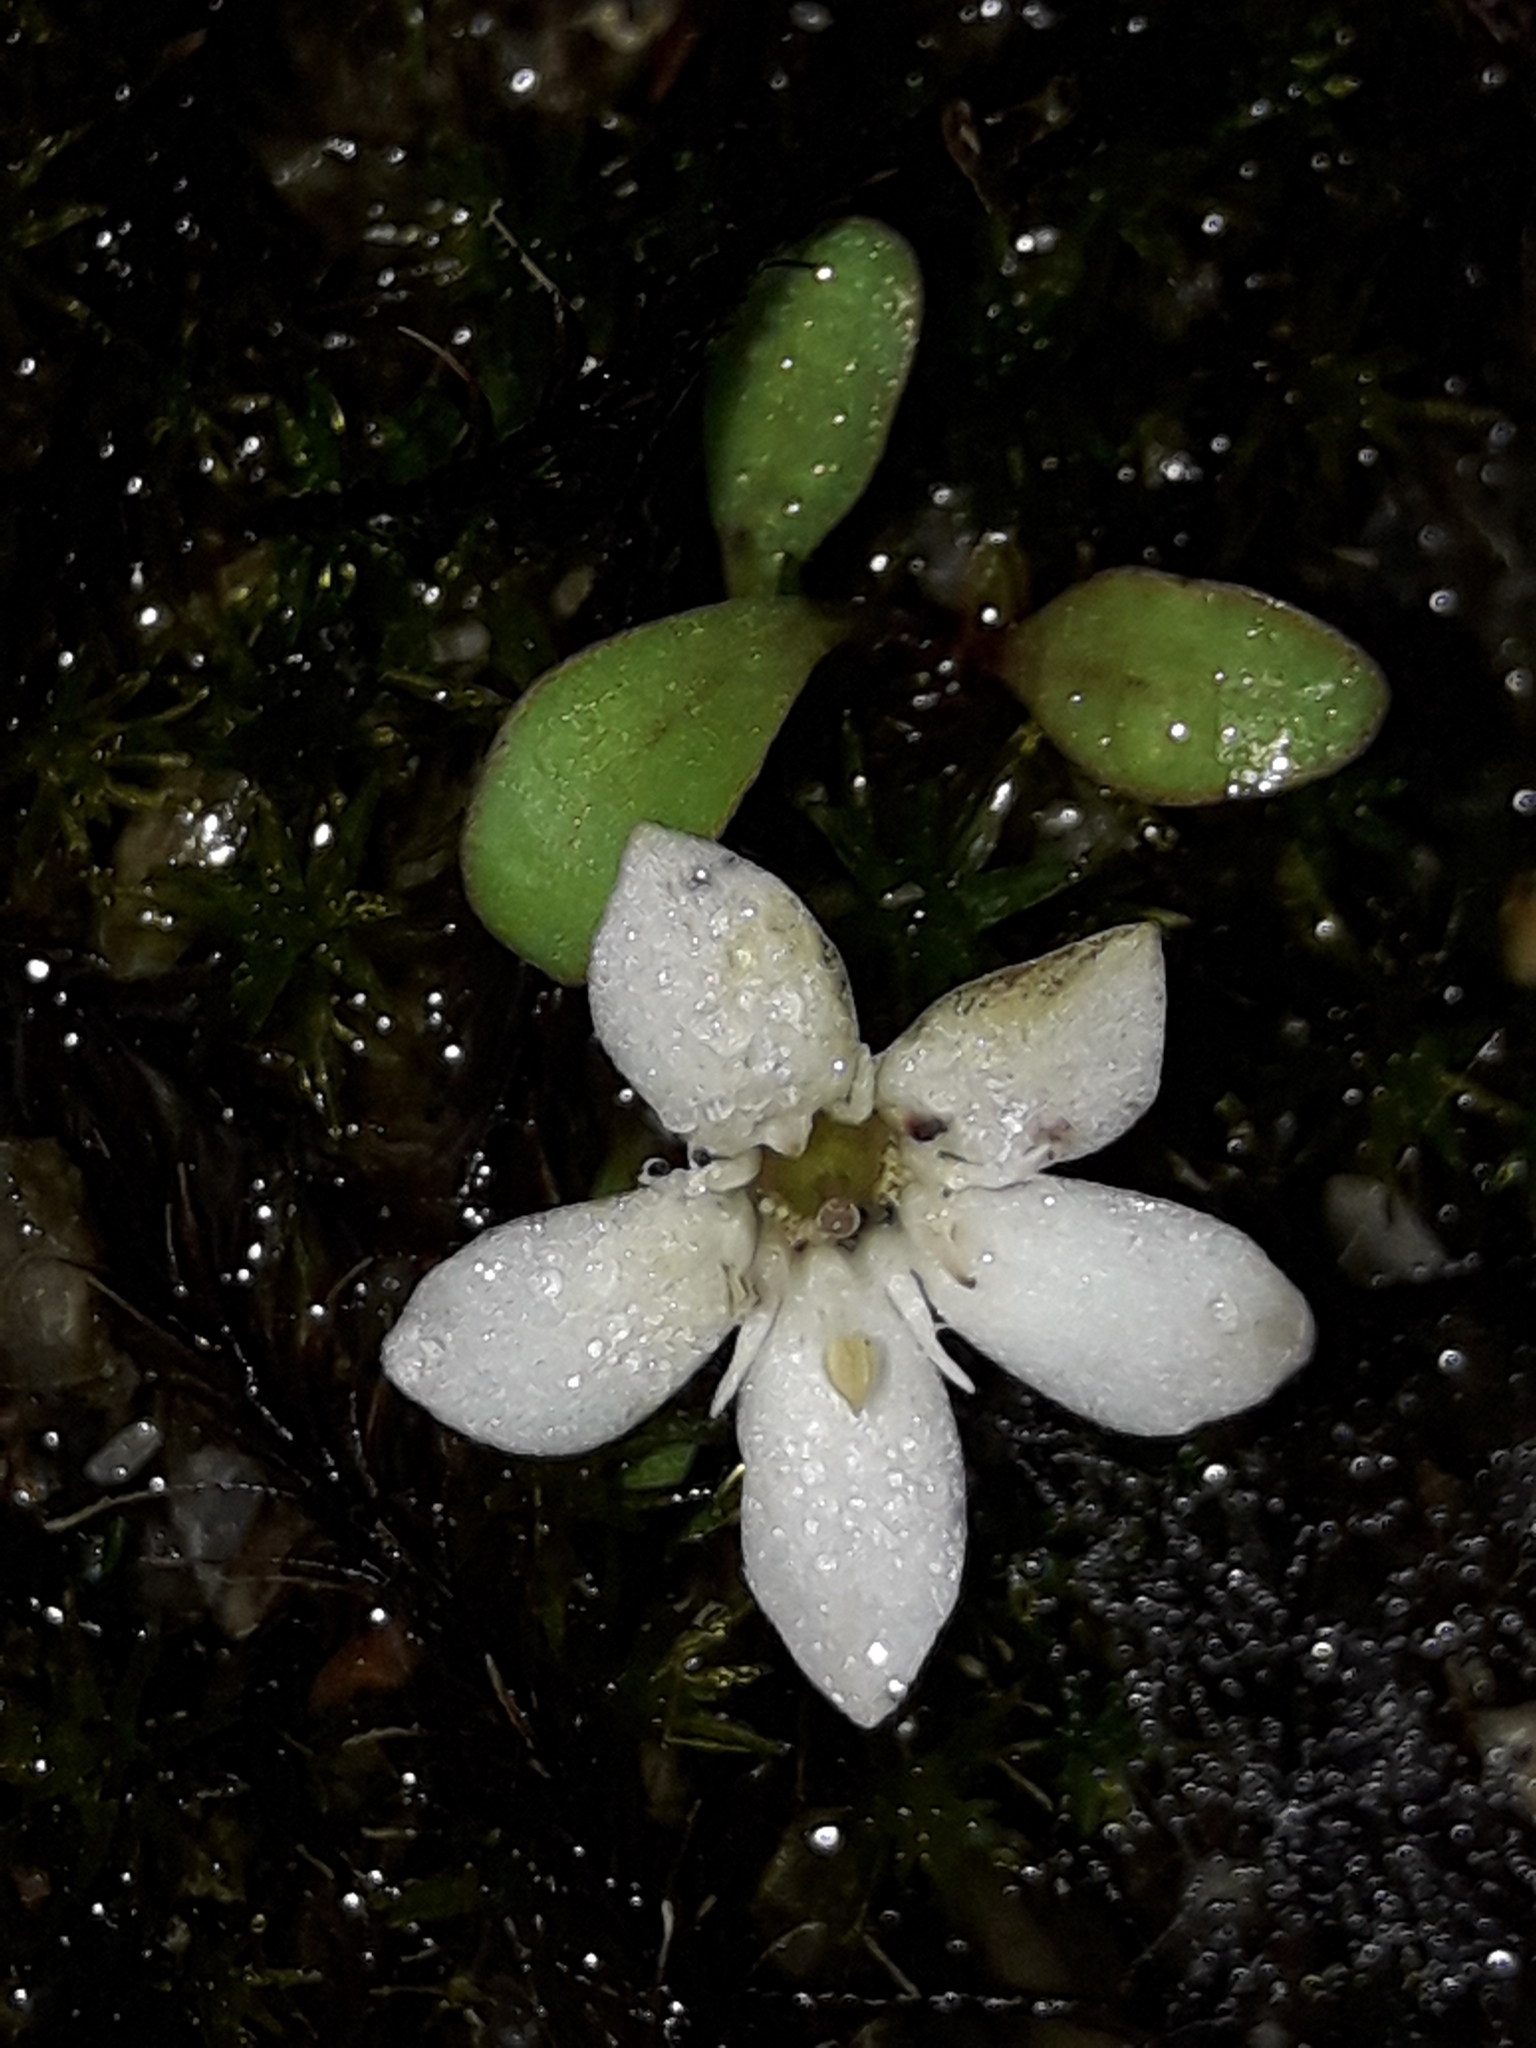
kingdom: Plantae
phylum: Tracheophyta
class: Magnoliopsida
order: Ericales
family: Primulaceae
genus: Samolus
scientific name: Samolus repens
